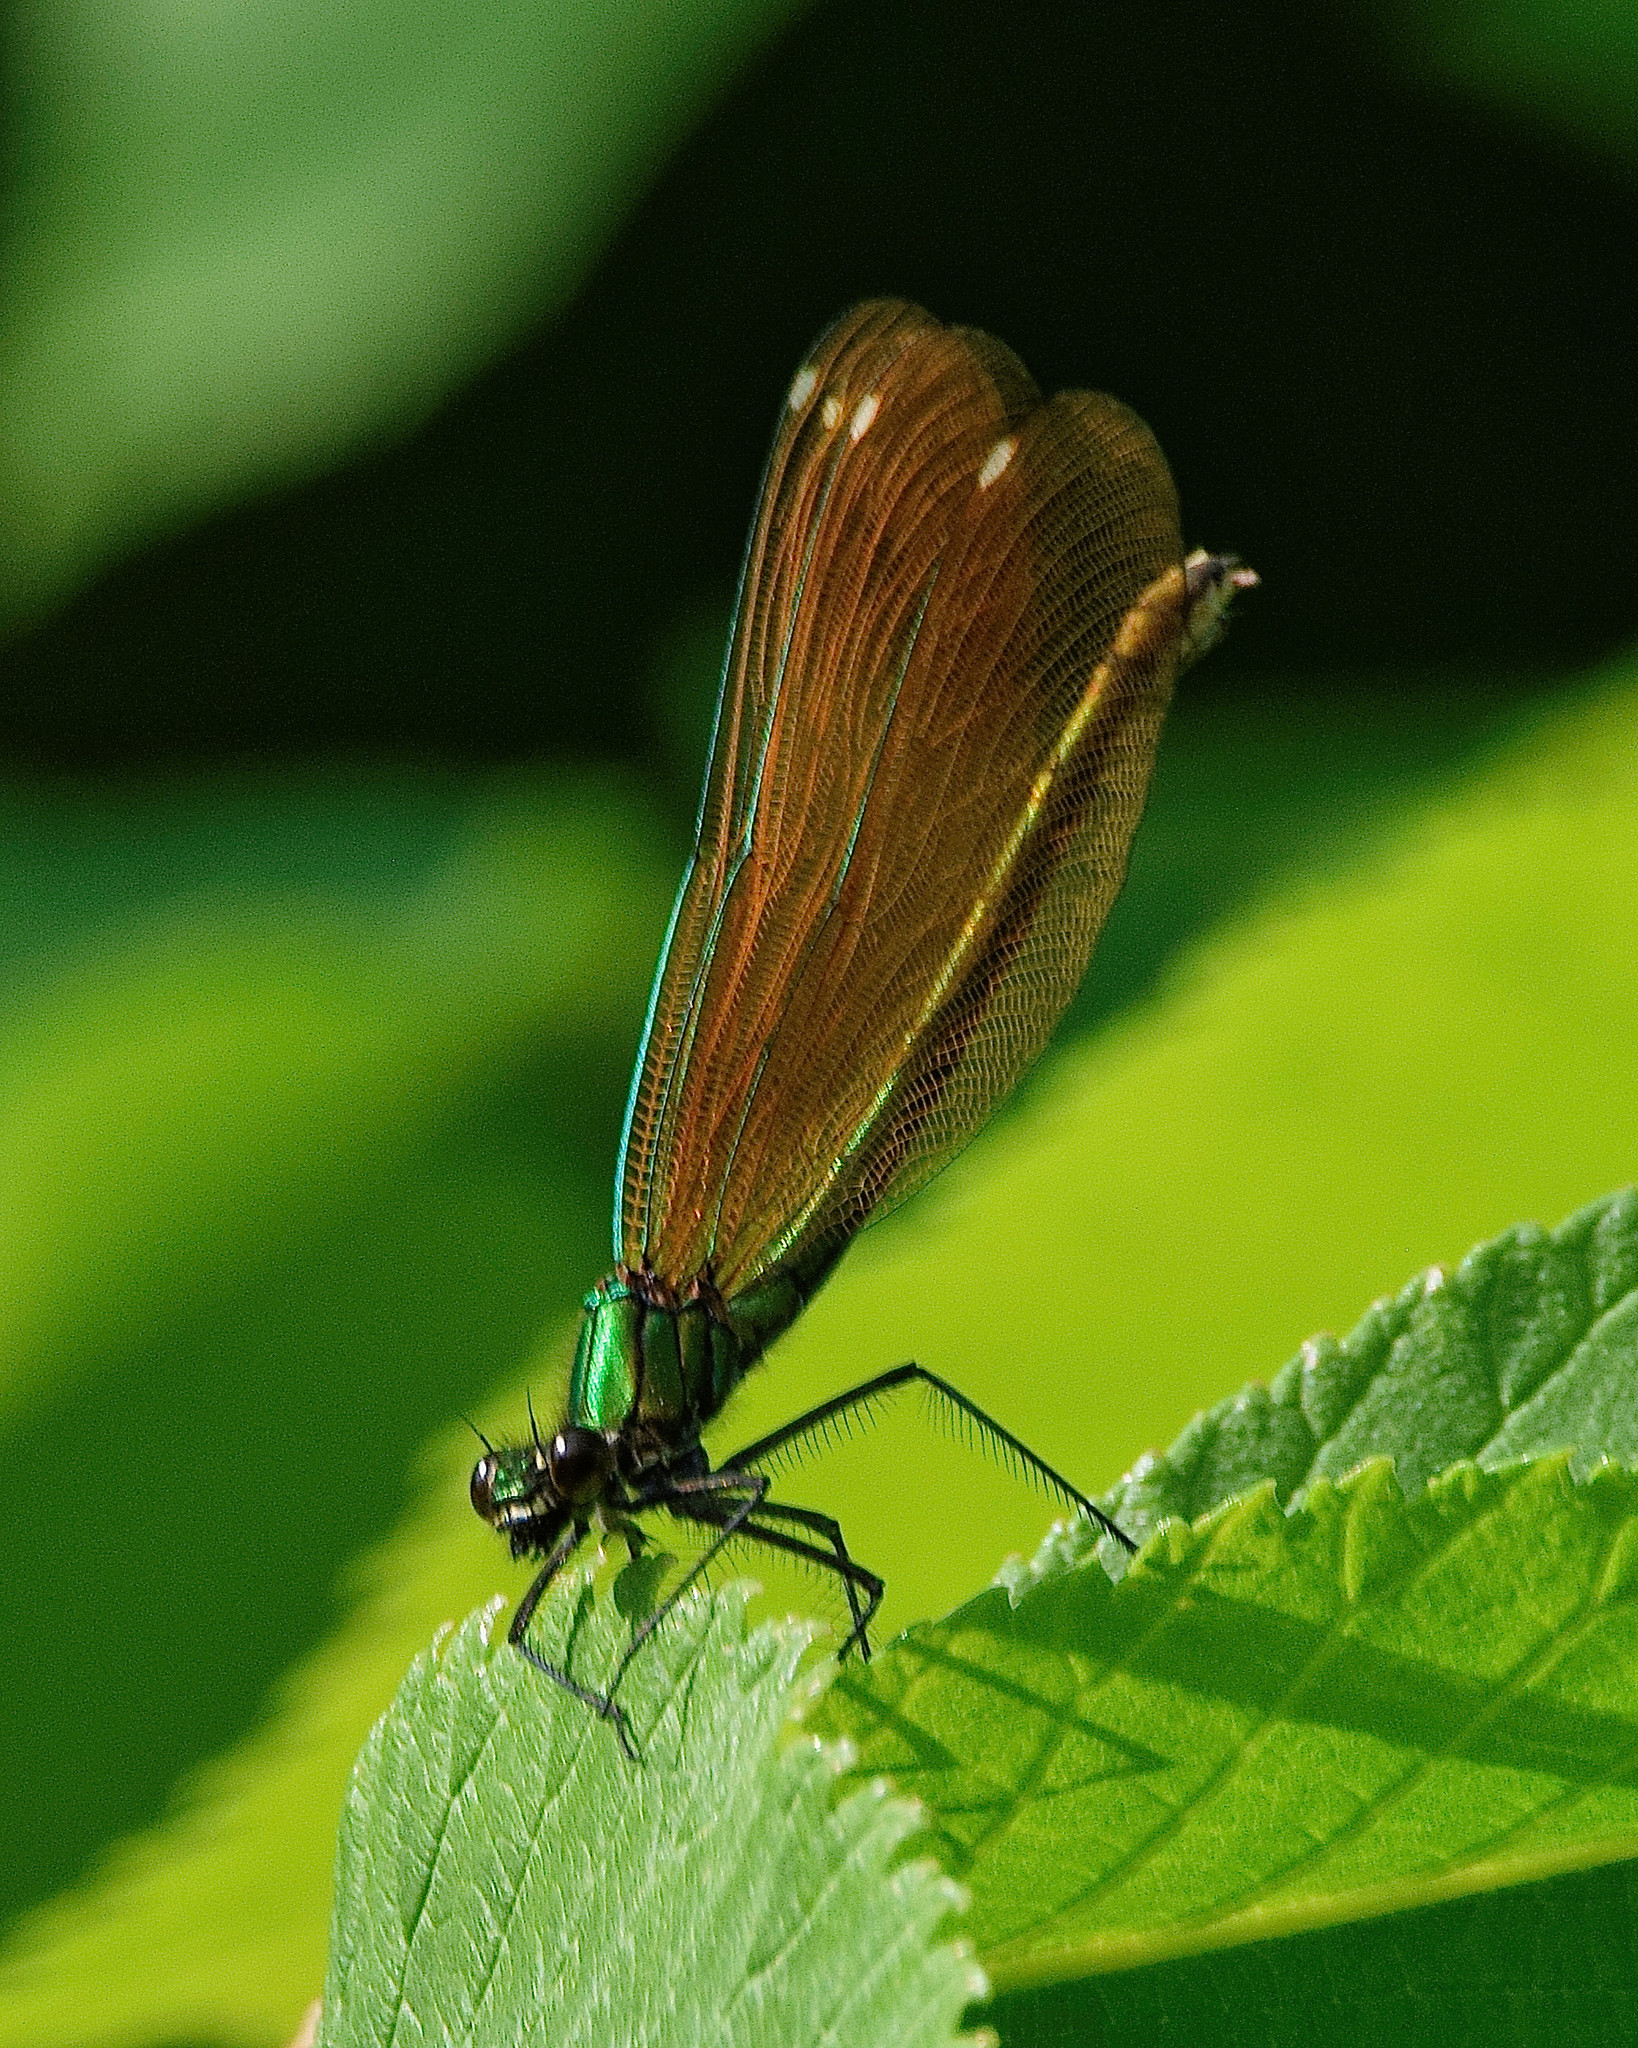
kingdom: Animalia
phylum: Arthropoda
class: Insecta
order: Odonata
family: Calopterygidae
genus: Calopteryx
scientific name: Calopteryx virgo
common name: Beautiful demoiselle
